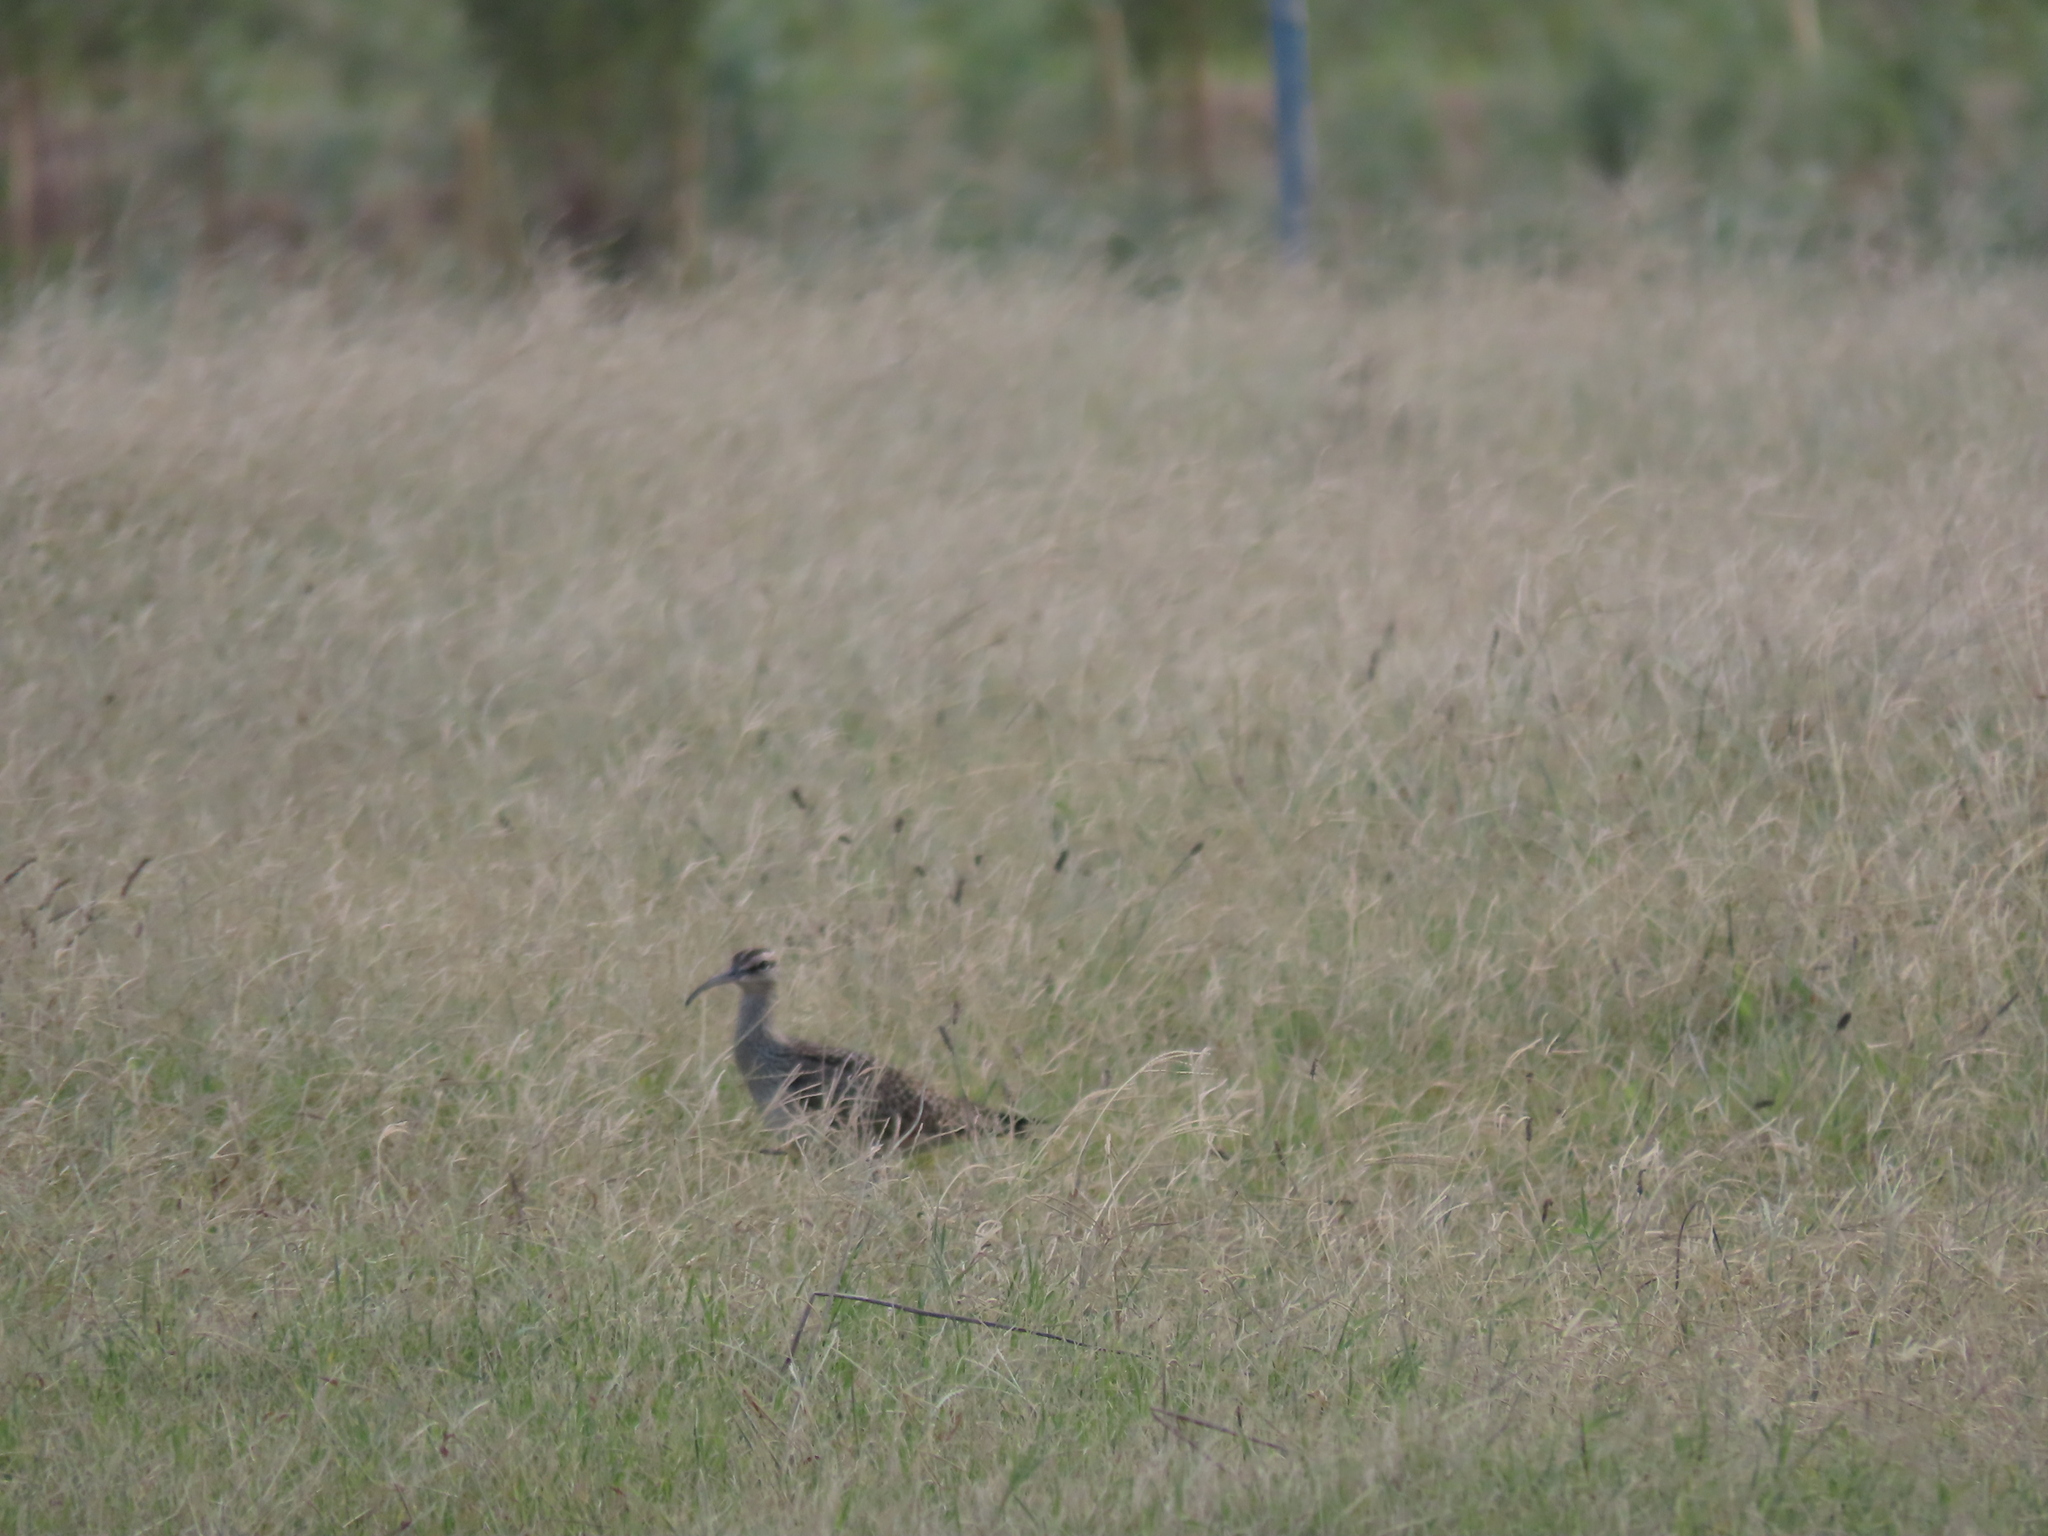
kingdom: Animalia
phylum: Chordata
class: Aves
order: Charadriiformes
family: Scolopacidae
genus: Numenius
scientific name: Numenius phaeopus
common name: Whimbrel
